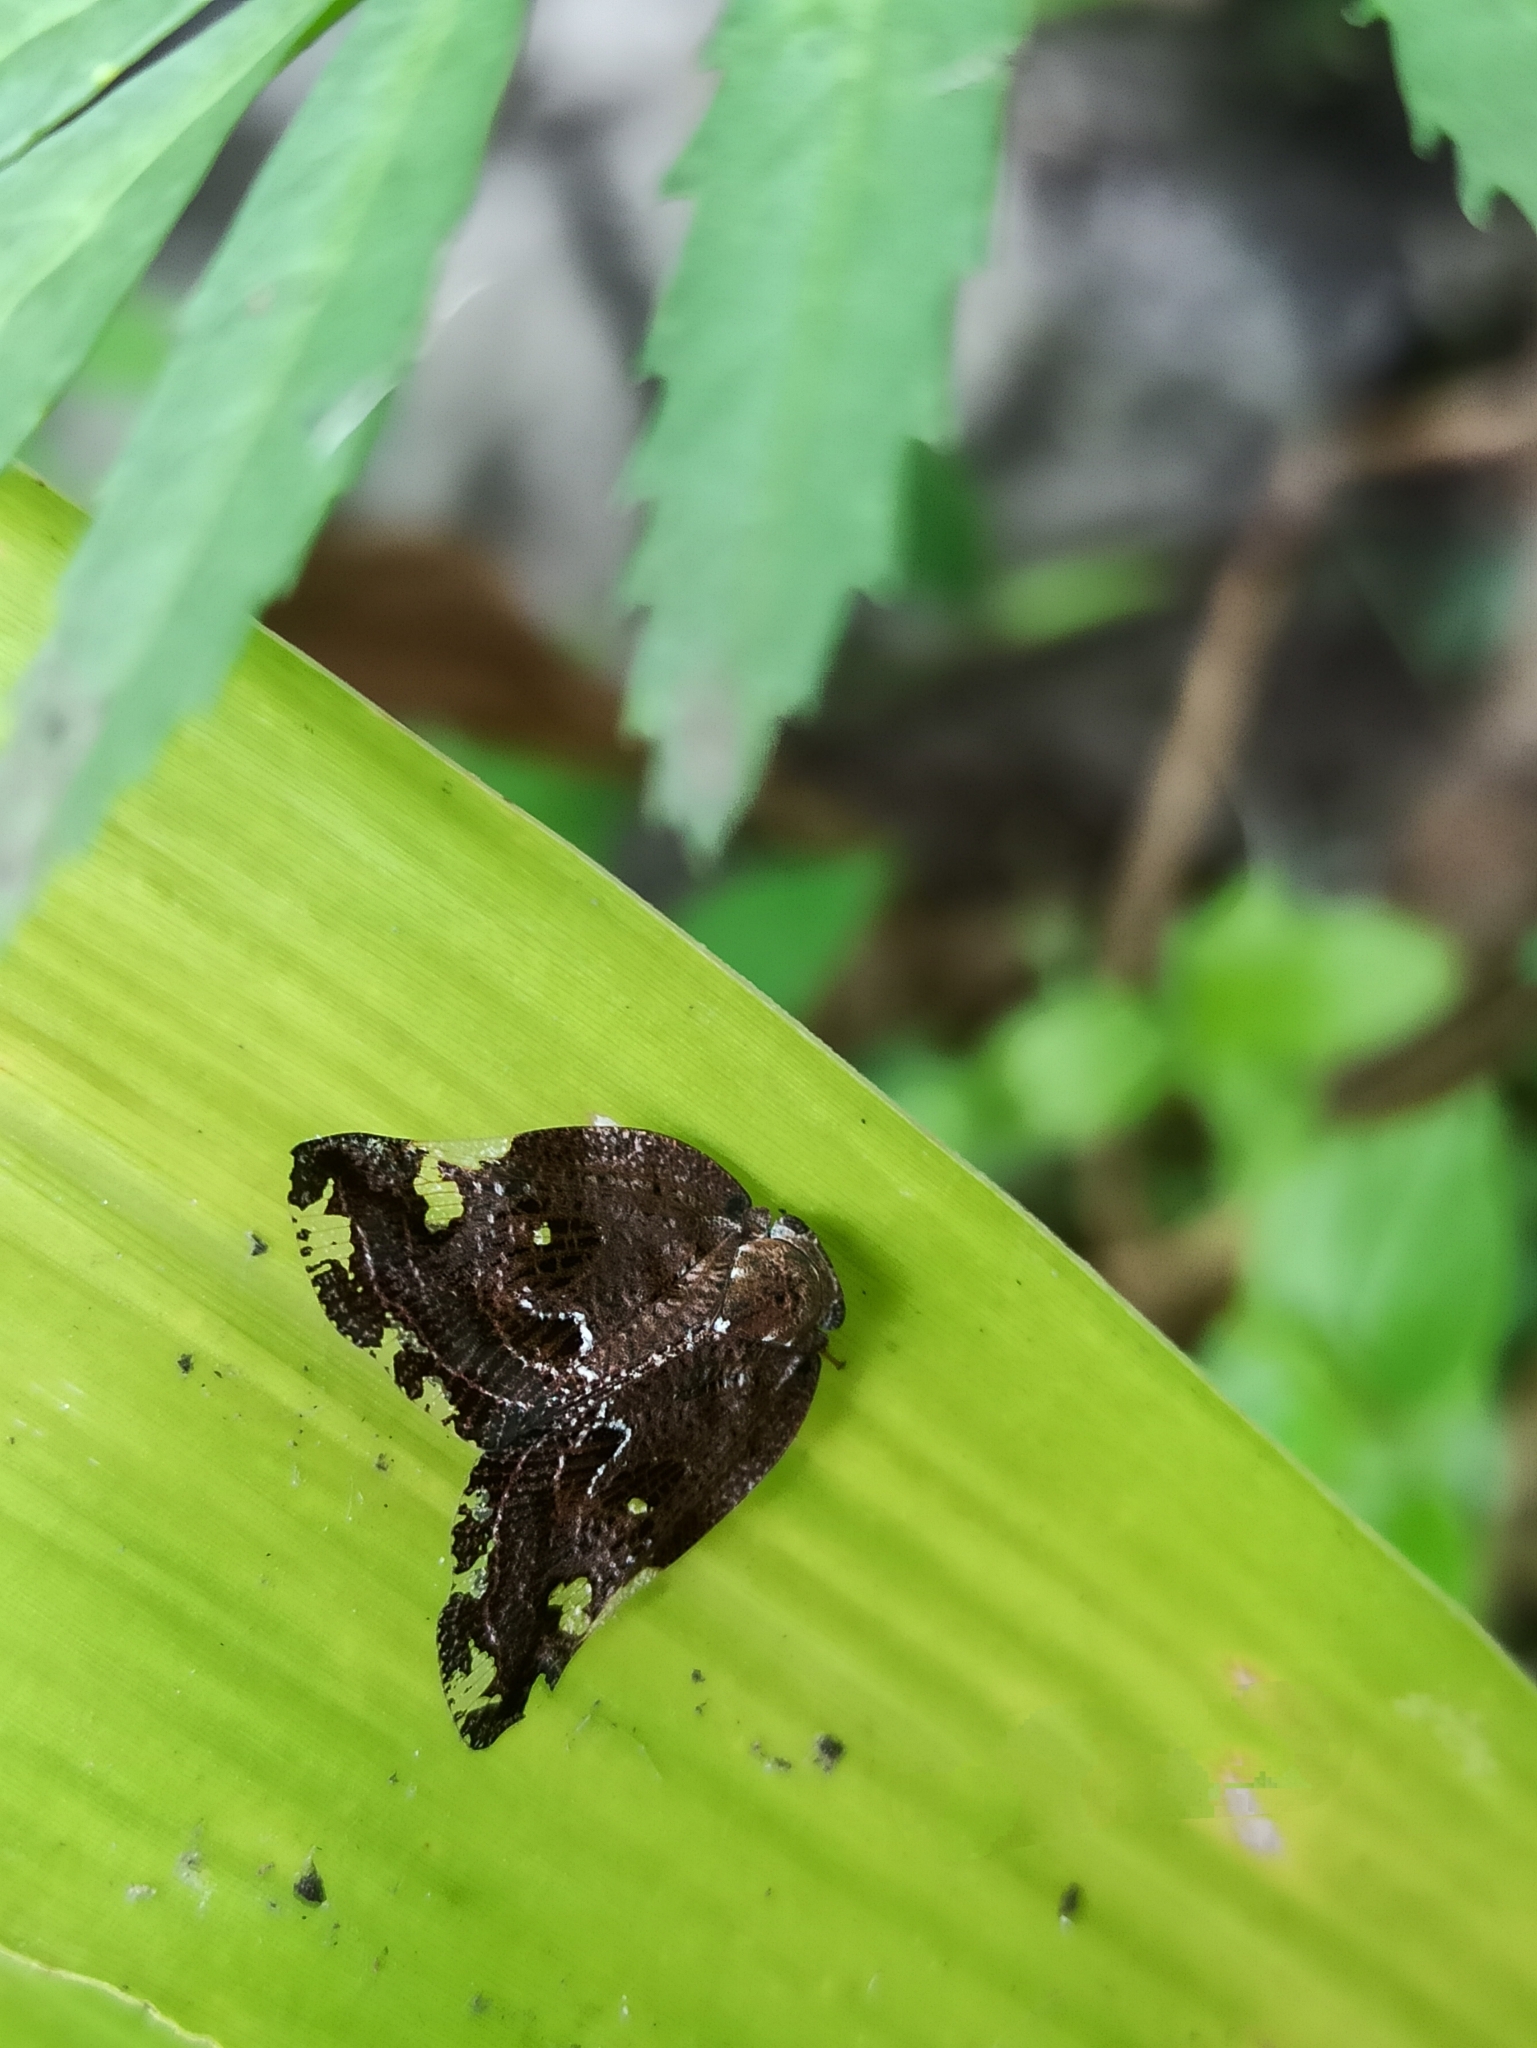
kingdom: Animalia
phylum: Arthropoda
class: Insecta
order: Hemiptera
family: Ricaniidae
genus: Ricania
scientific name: Ricania speculum
